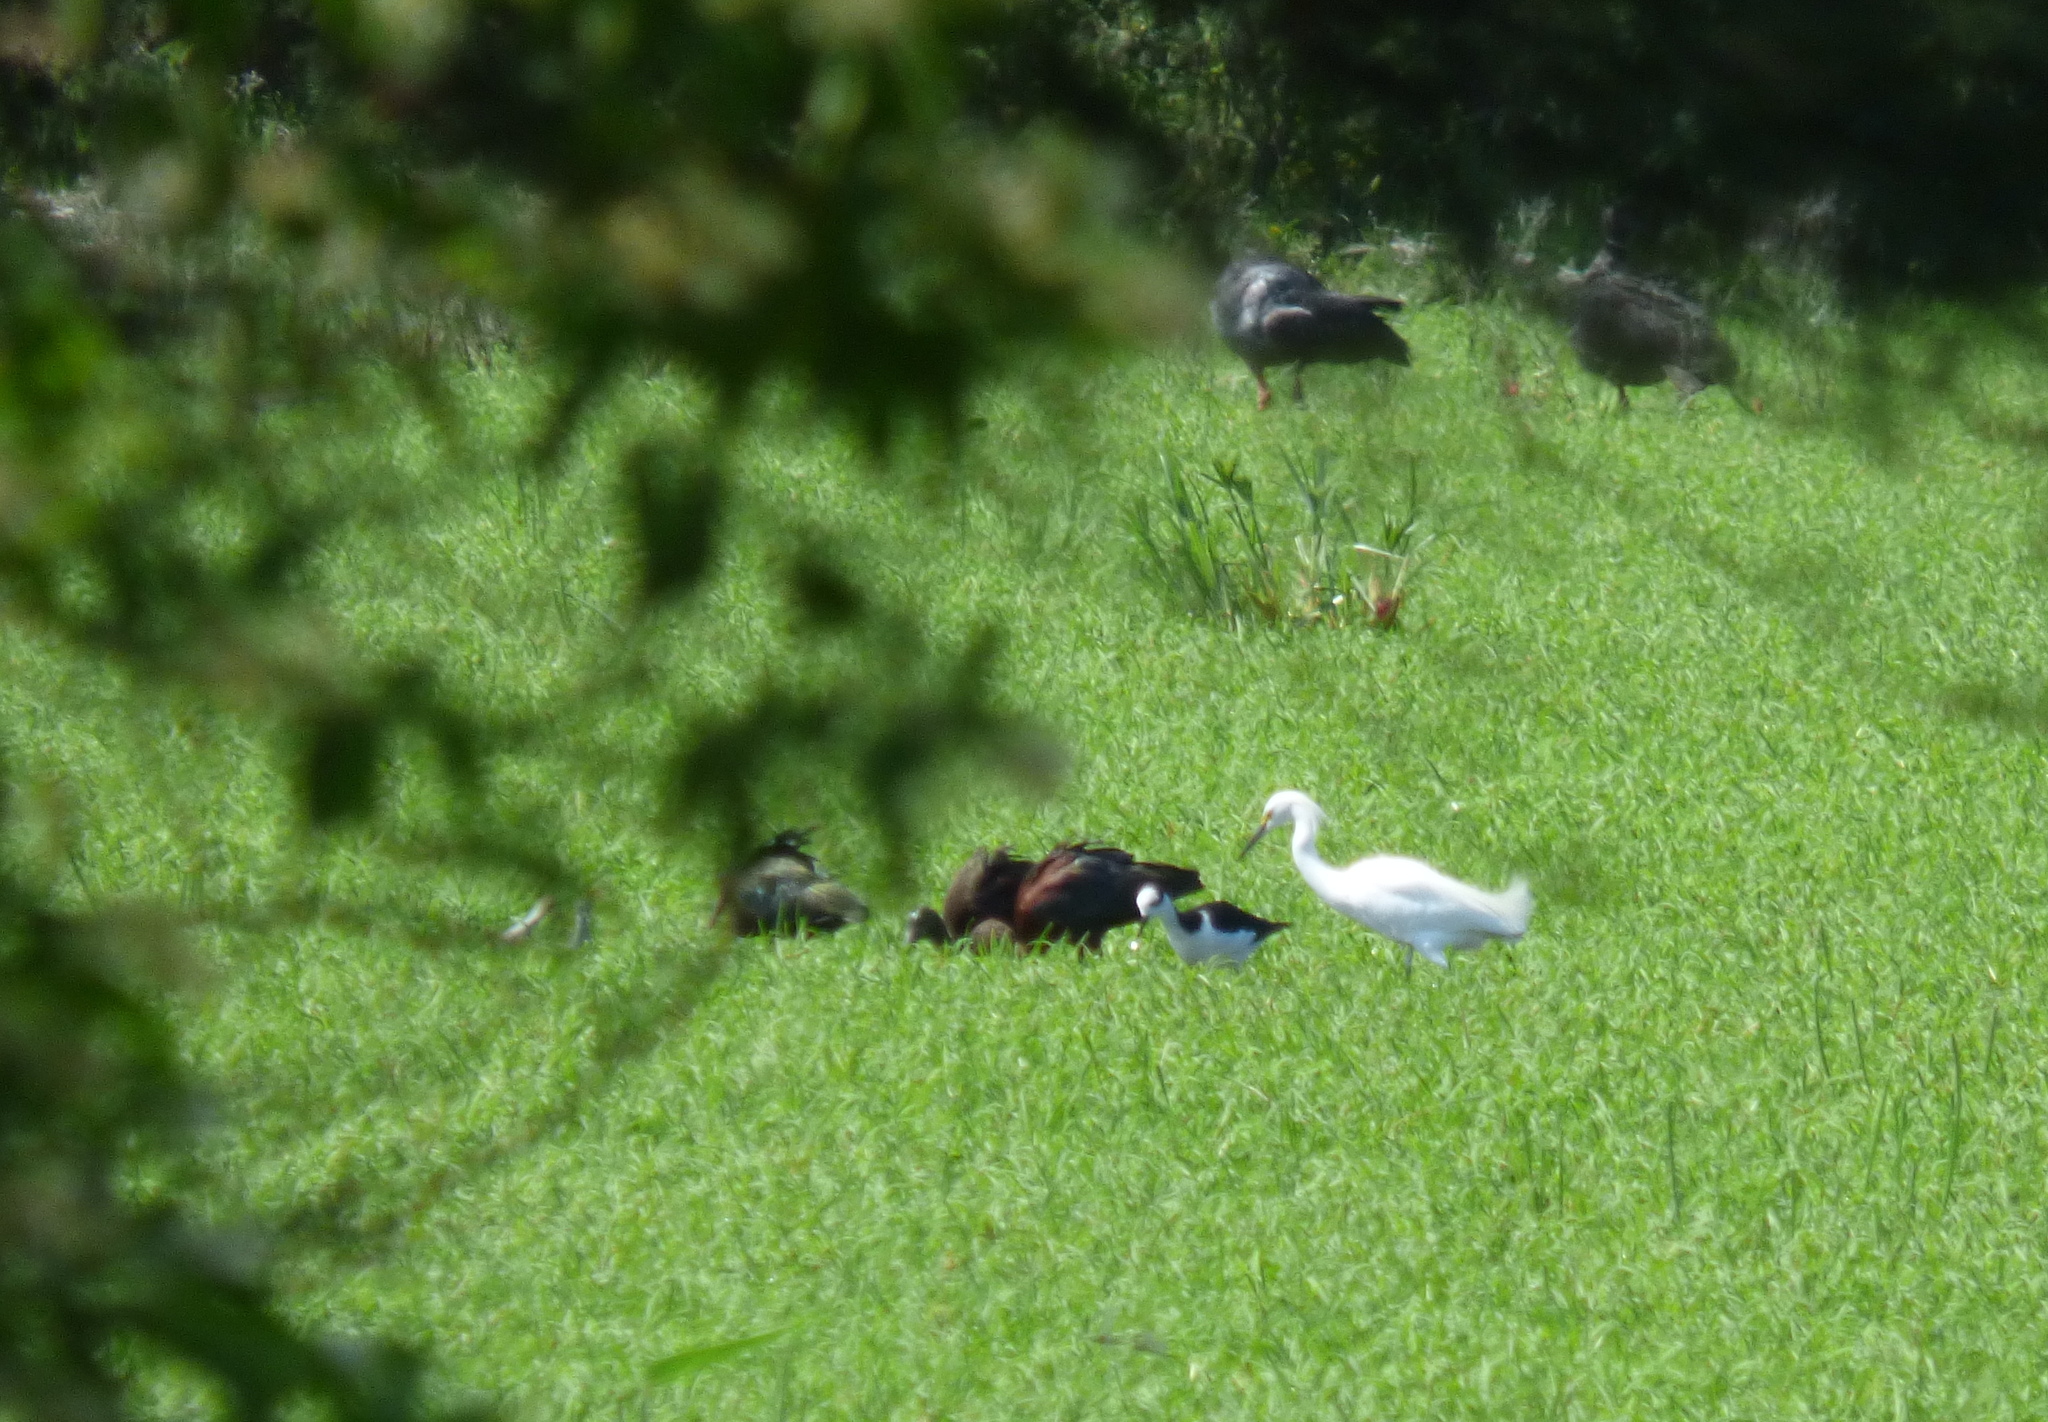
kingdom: Animalia
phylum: Chordata
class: Aves
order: Pelecaniformes
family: Ardeidae
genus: Egretta
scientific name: Egretta thula
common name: Snowy egret
